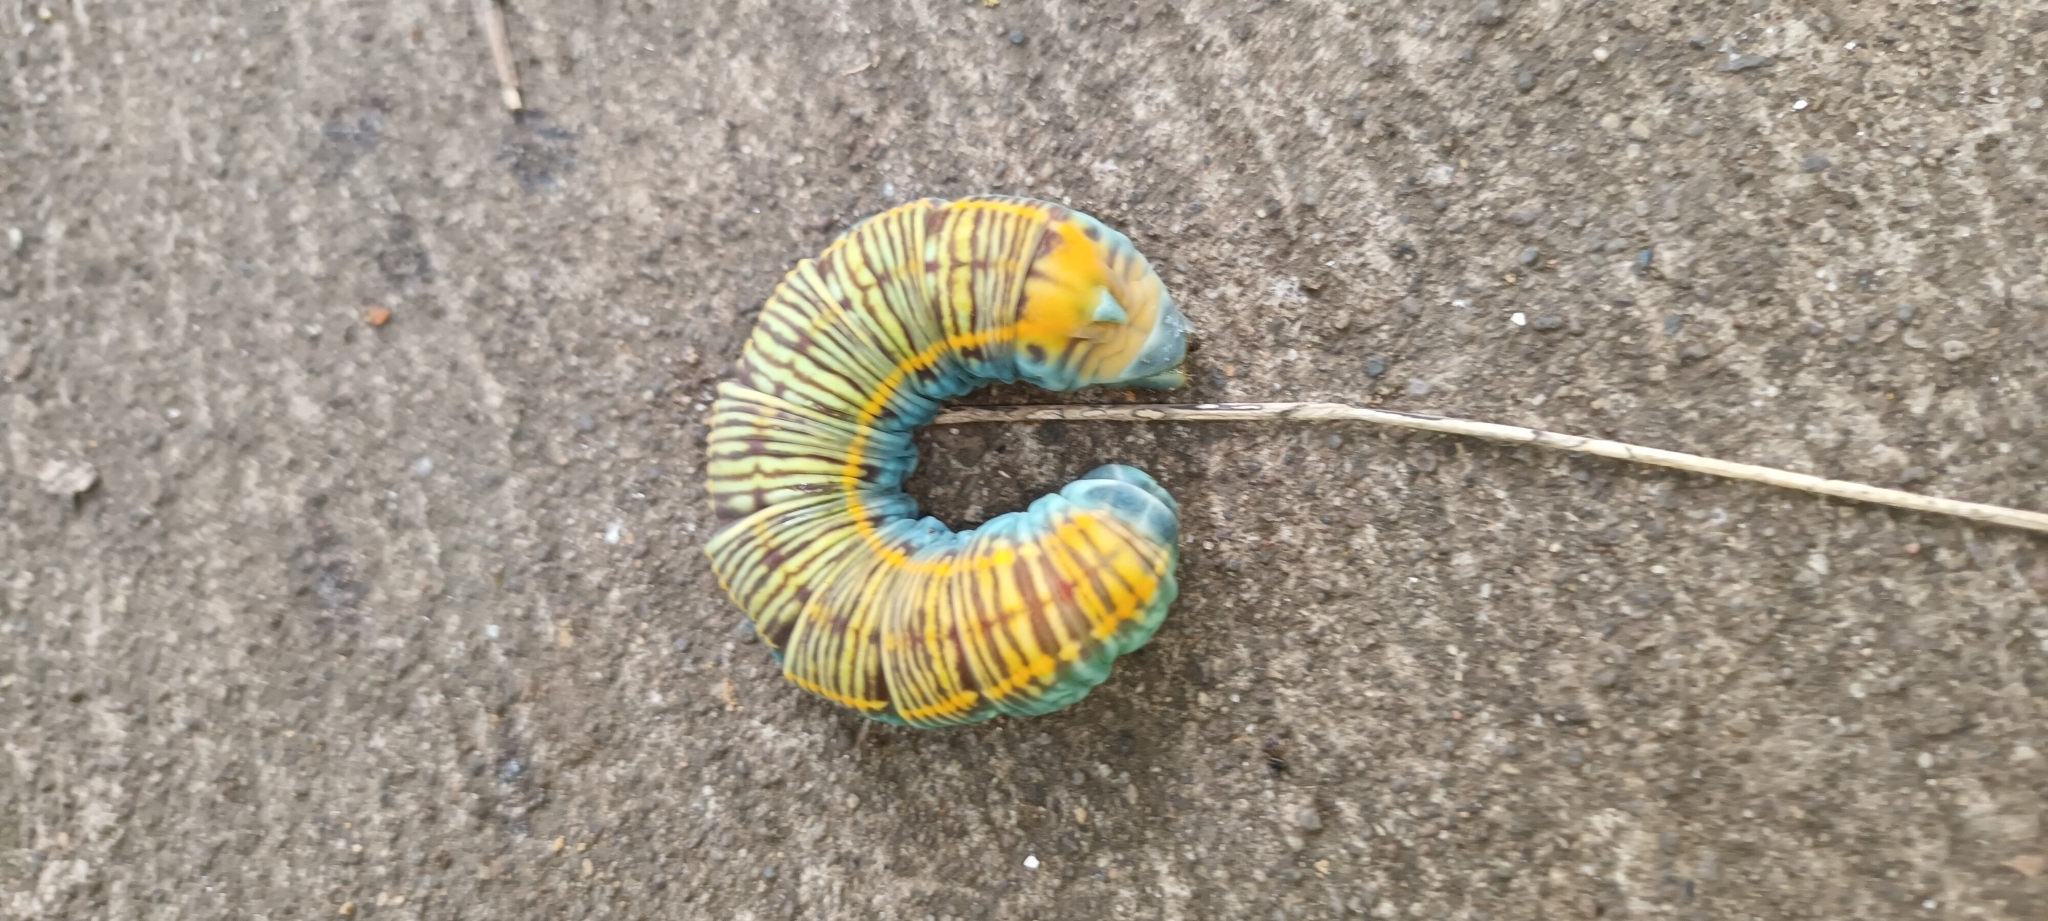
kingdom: Animalia
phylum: Arthropoda
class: Insecta
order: Lepidoptera
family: Sphingidae
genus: Pachylia
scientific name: Pachylia ficus
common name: Fig sphinx
